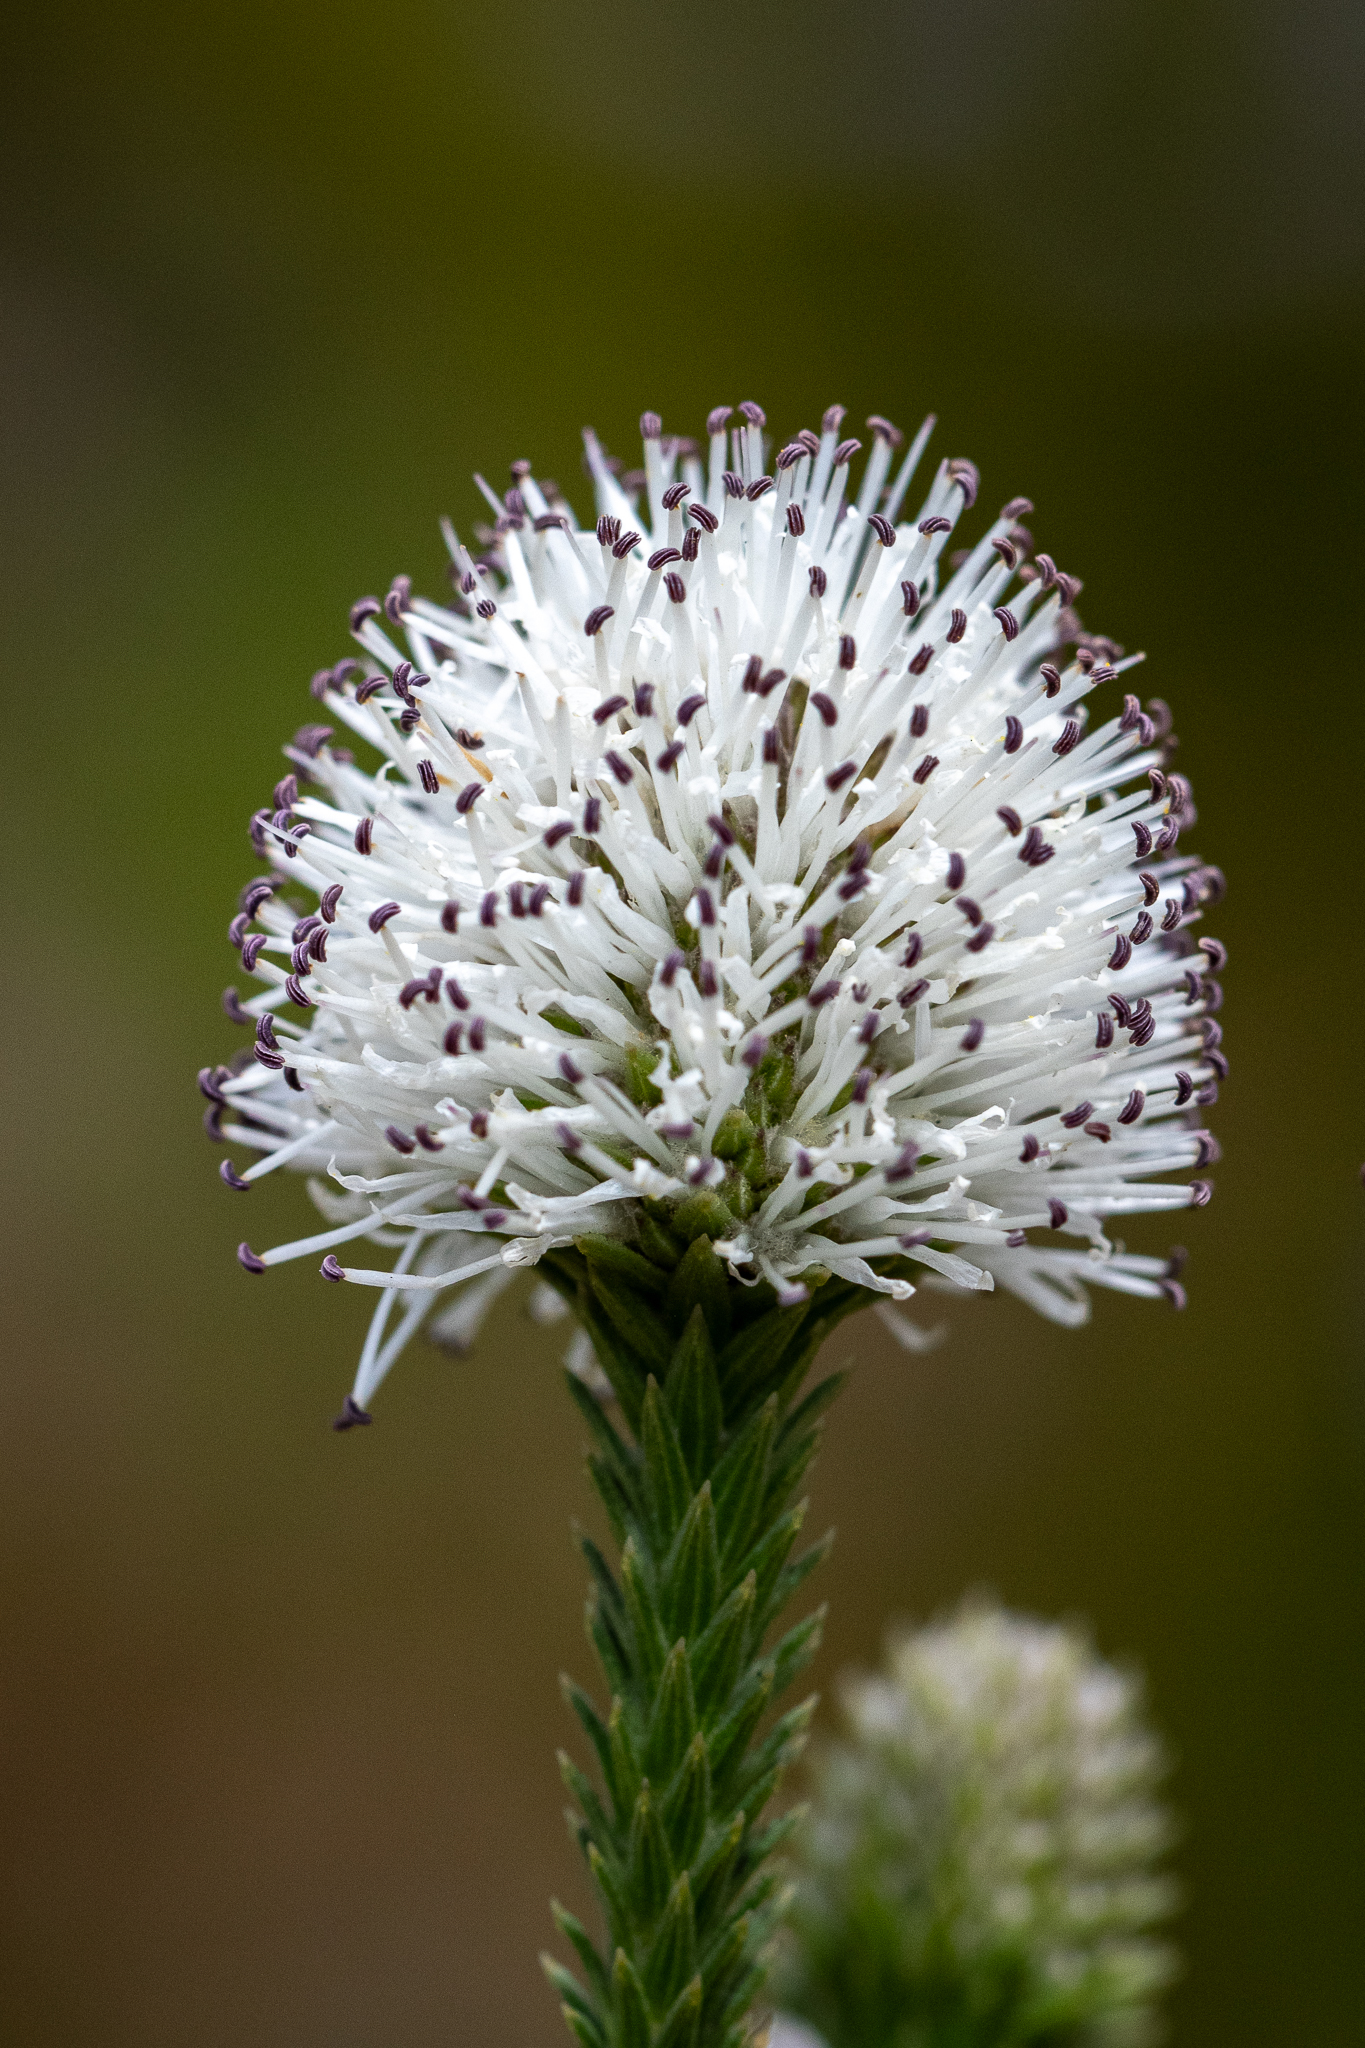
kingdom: Plantae
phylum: Tracheophyta
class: Magnoliopsida
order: Lamiales
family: Stilbaceae
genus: Stilbe
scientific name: Stilbe albiflora
